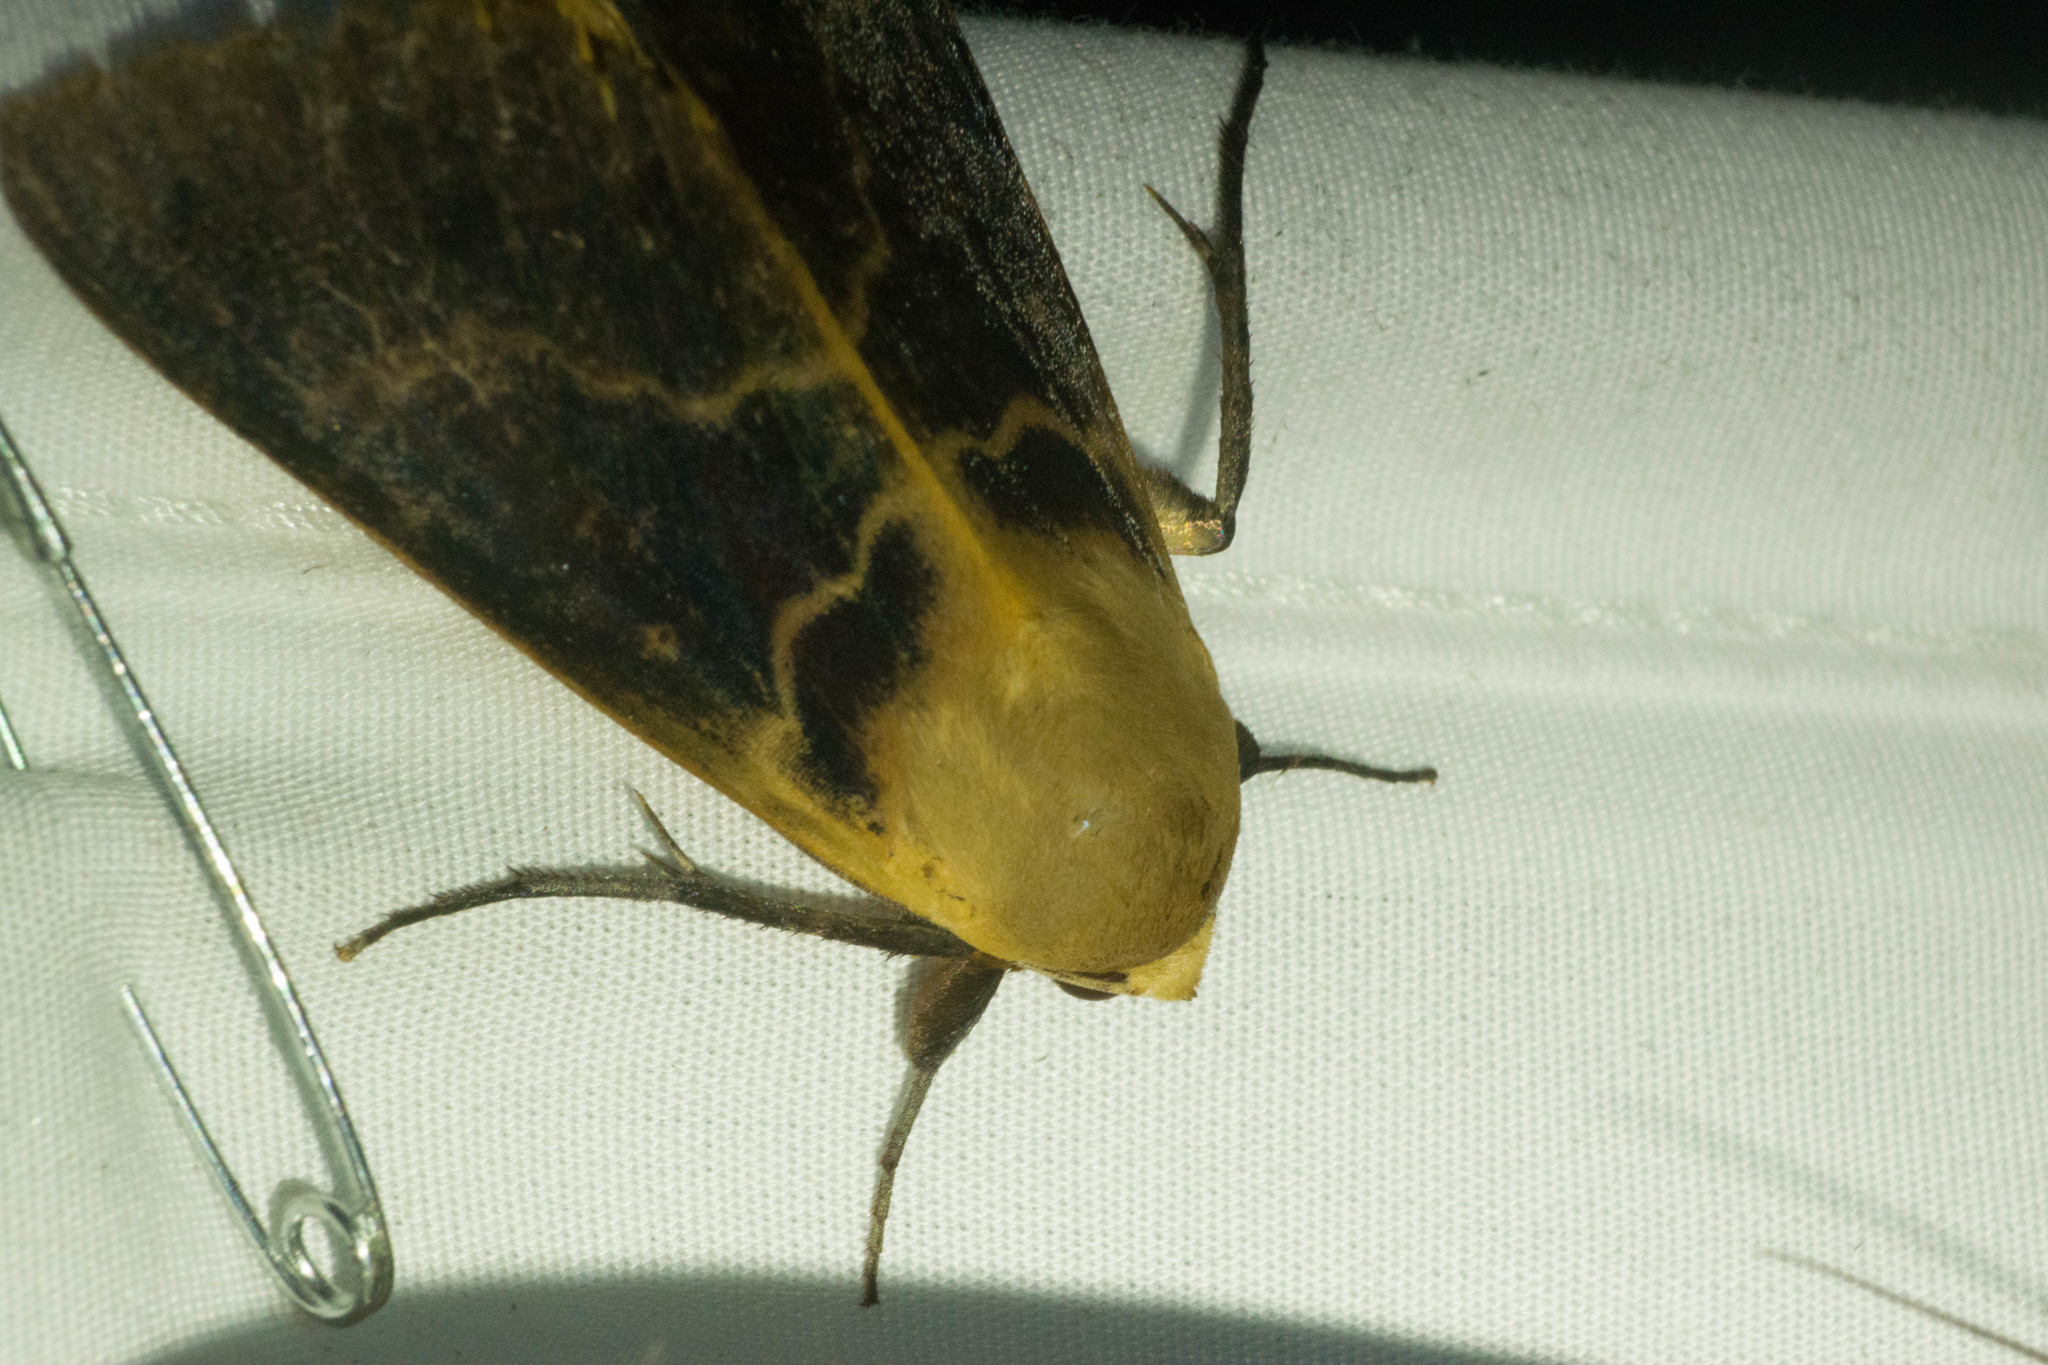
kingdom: Animalia
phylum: Arthropoda
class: Insecta
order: Lepidoptera
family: Erebidae
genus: Ophiusa
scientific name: Ophiusa disjungens
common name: Moth
